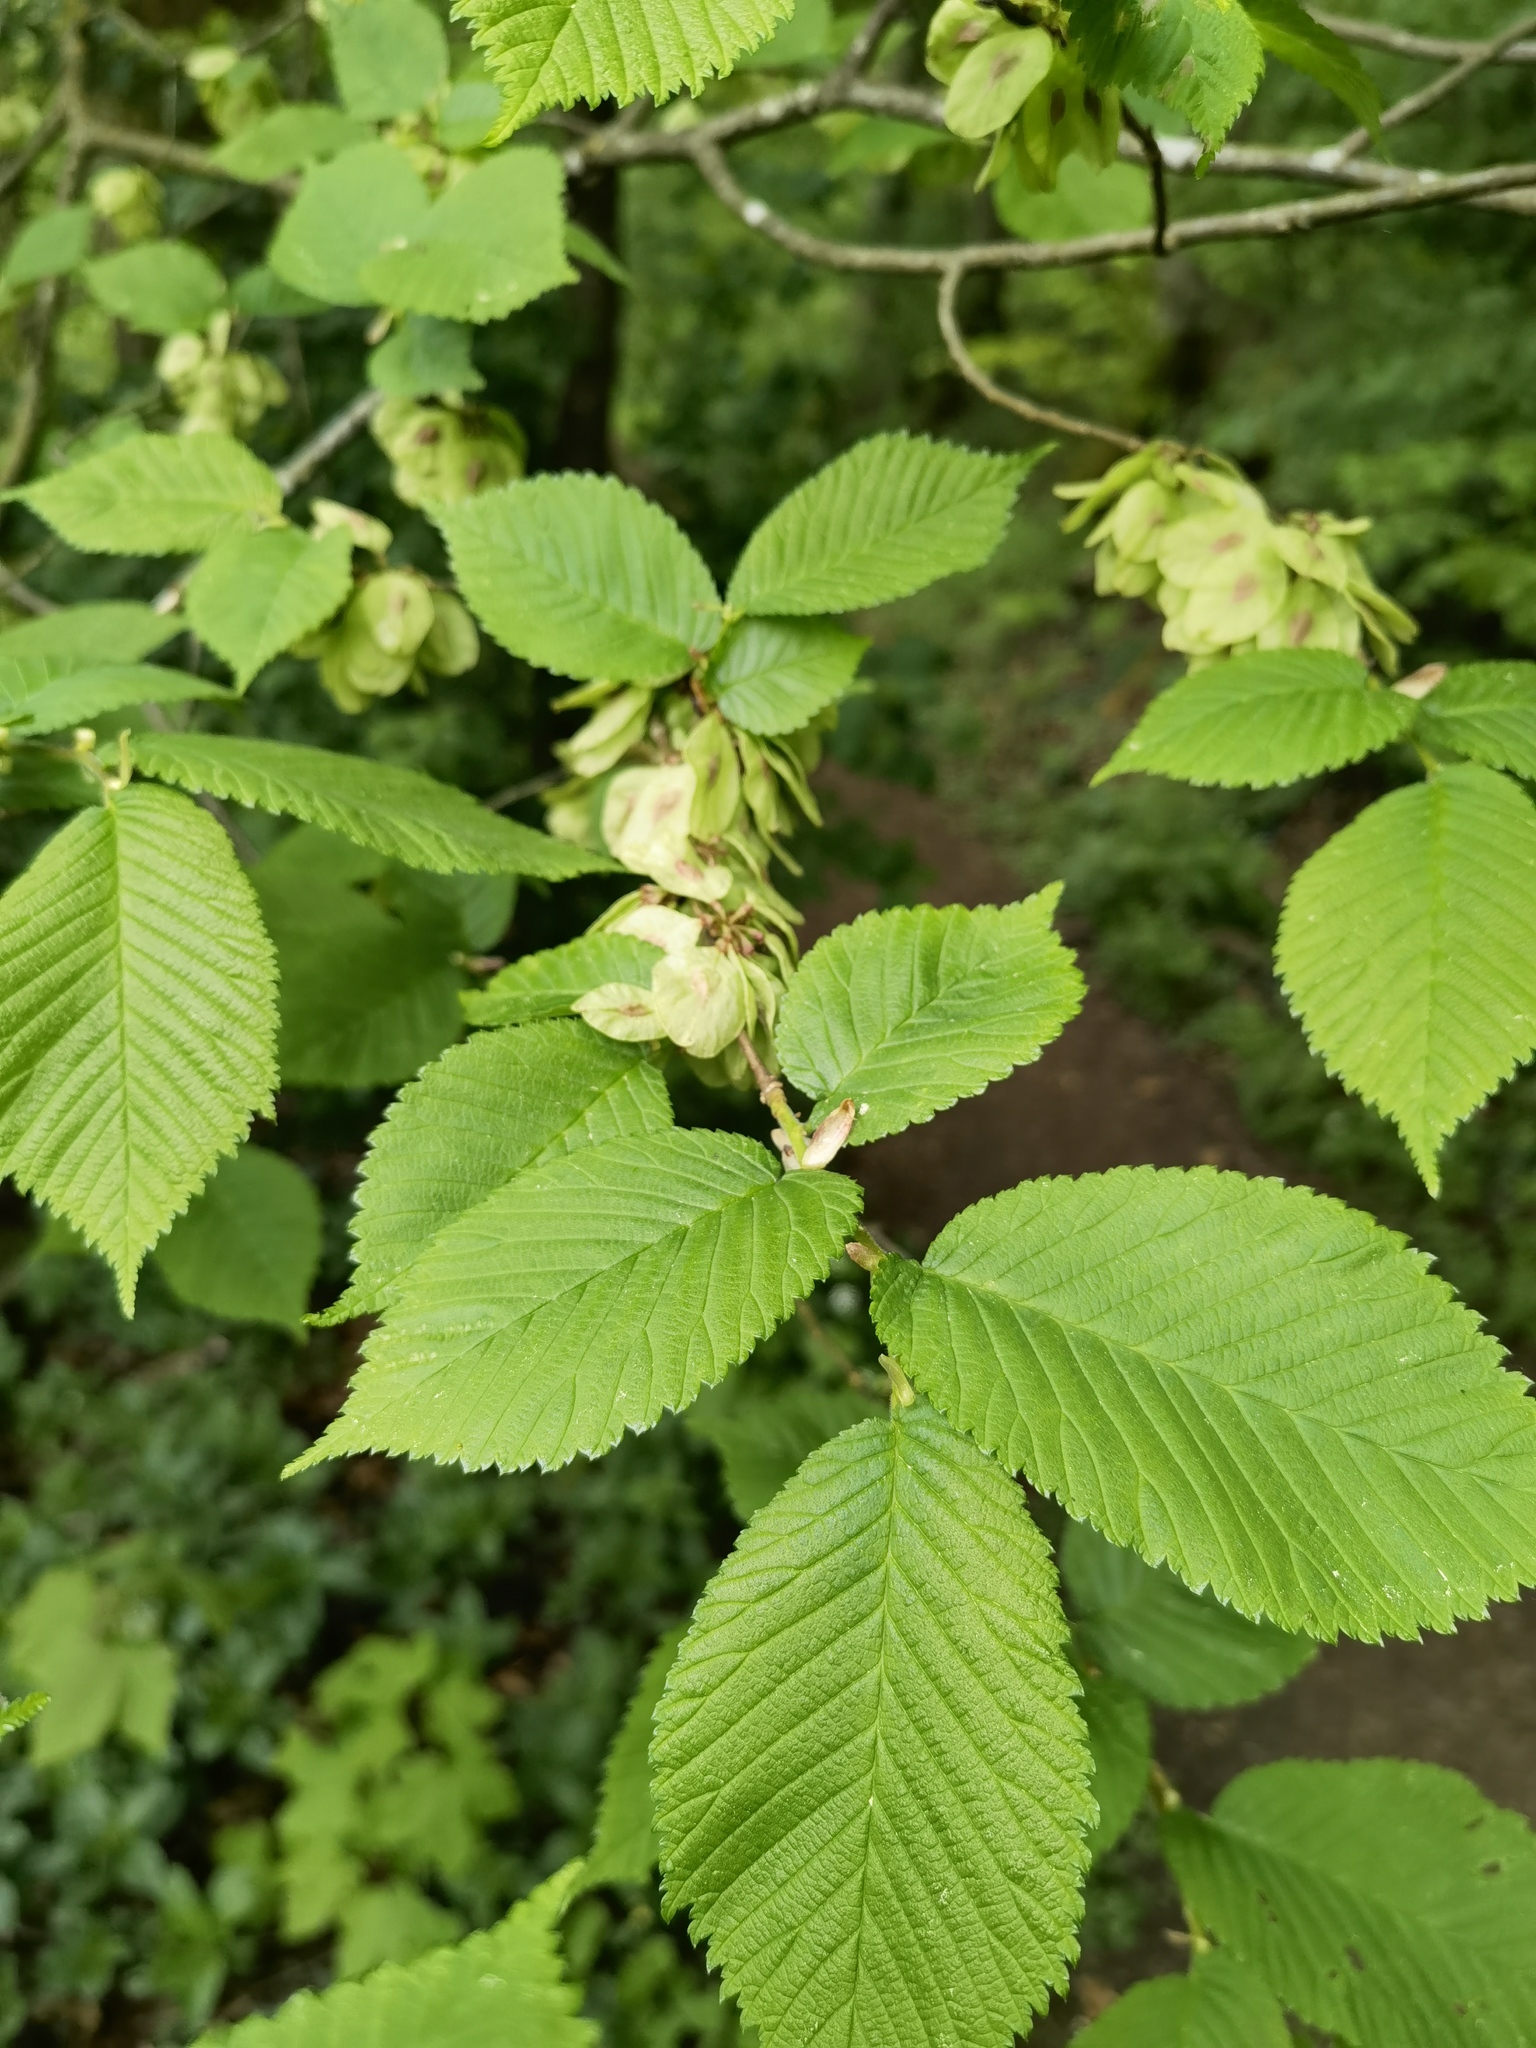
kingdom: Plantae
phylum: Tracheophyta
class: Magnoliopsida
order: Rosales
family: Ulmaceae
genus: Ulmus
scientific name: Ulmus glabra
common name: Wych elm
